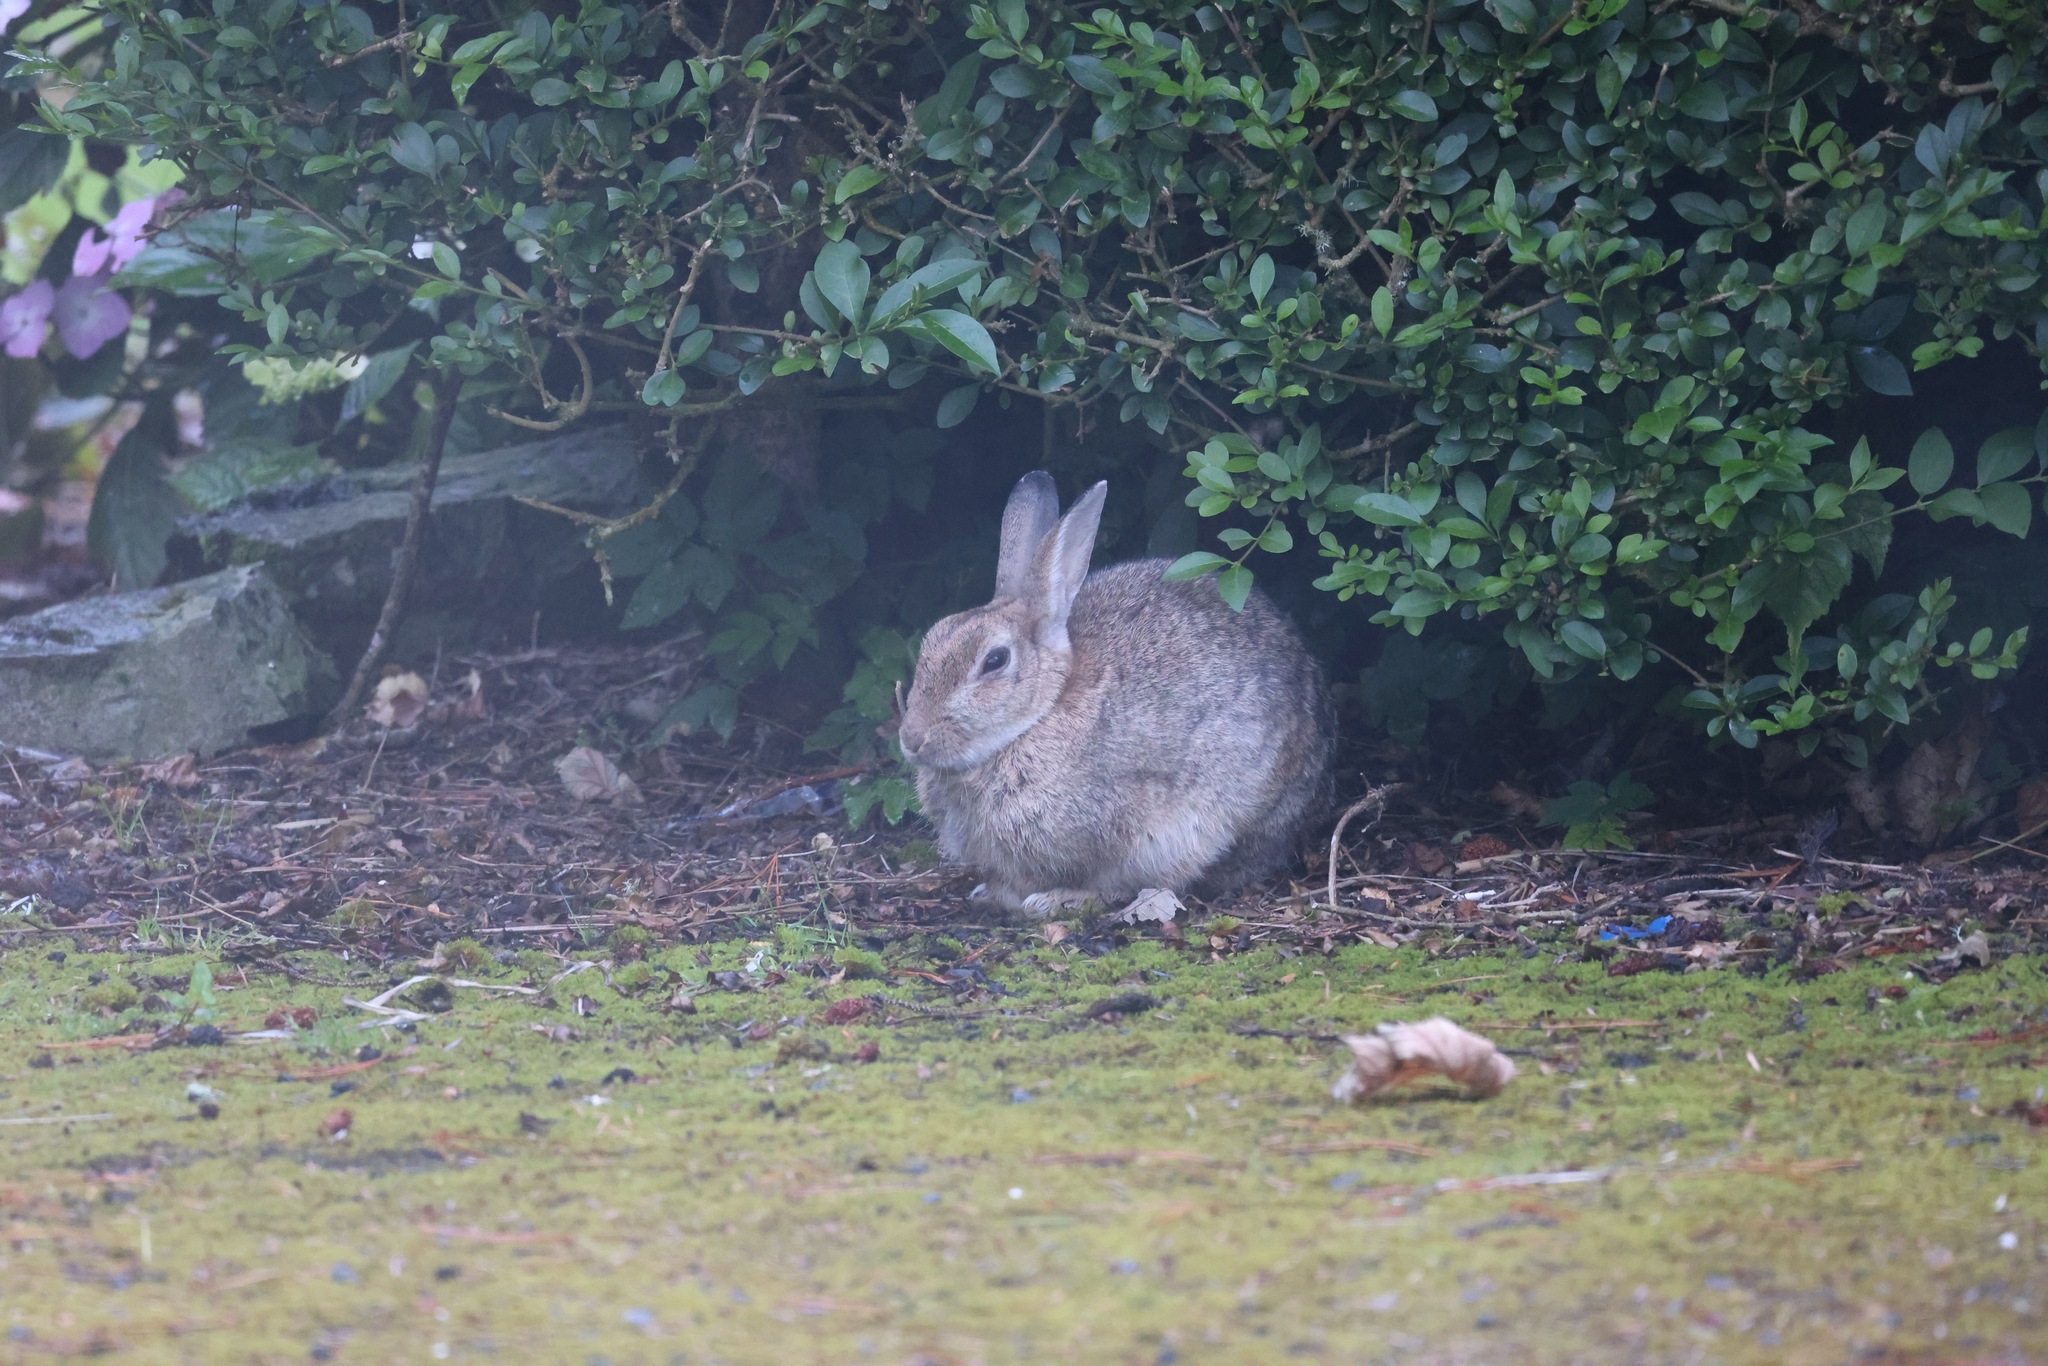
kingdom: Animalia
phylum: Chordata
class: Mammalia
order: Lagomorpha
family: Leporidae
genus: Oryctolagus
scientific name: Oryctolagus cuniculus
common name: European rabbit
